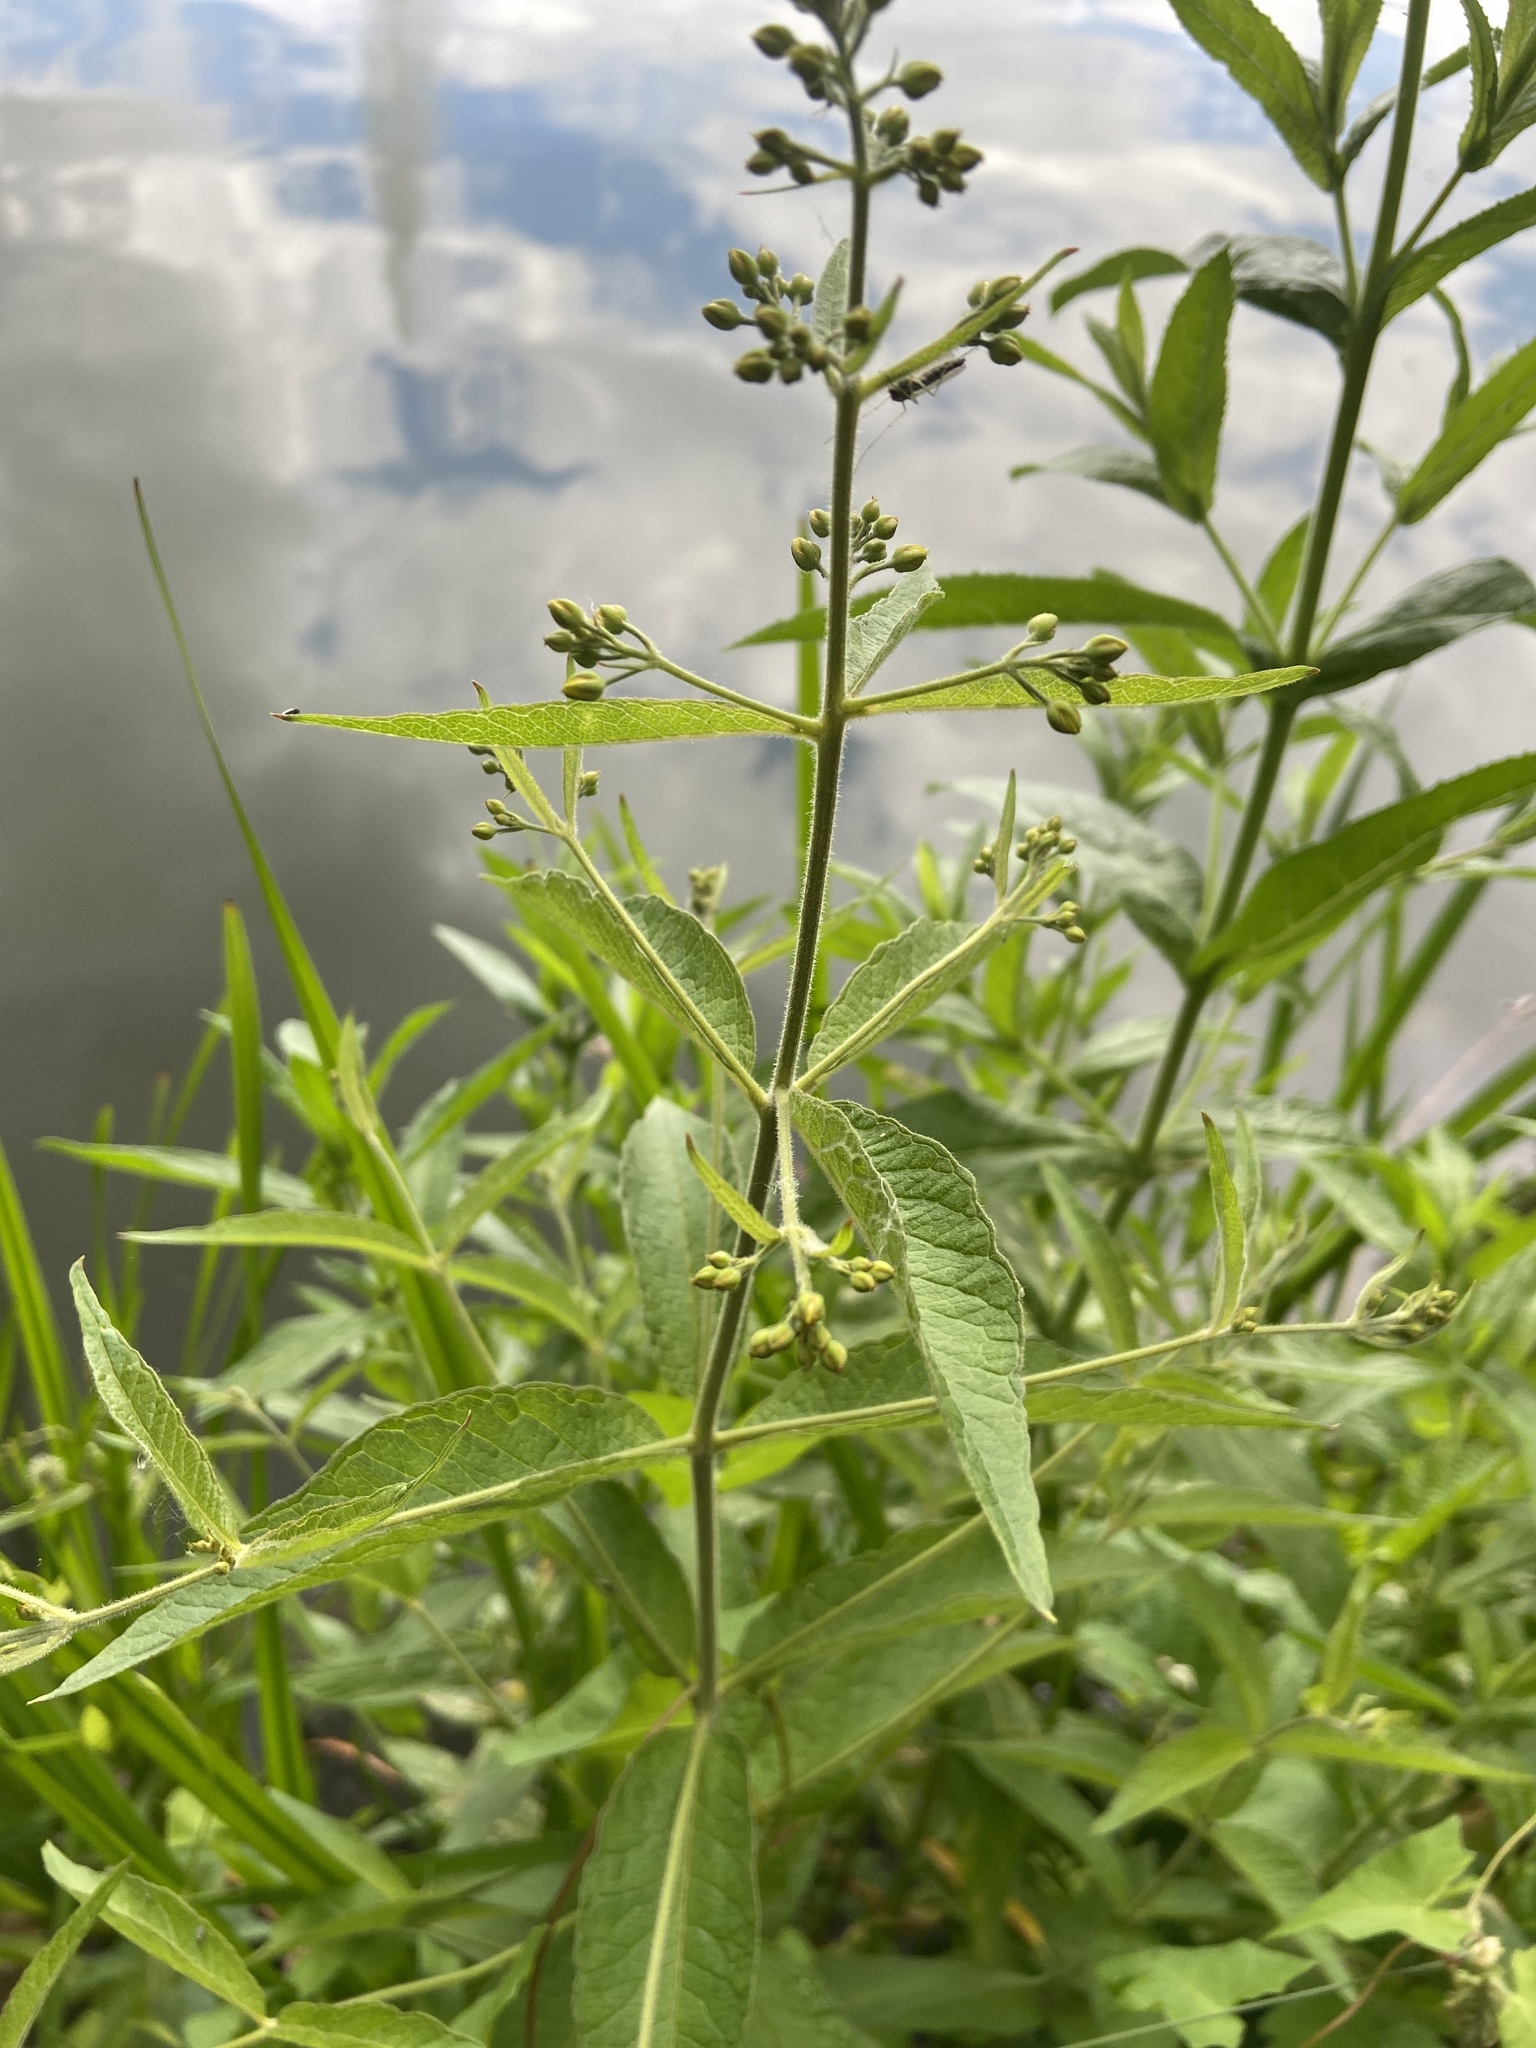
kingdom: Plantae
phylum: Tracheophyta
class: Magnoliopsida
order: Ericales
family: Primulaceae
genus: Lysimachia
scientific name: Lysimachia vulgaris
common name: Yellow loosestrife
